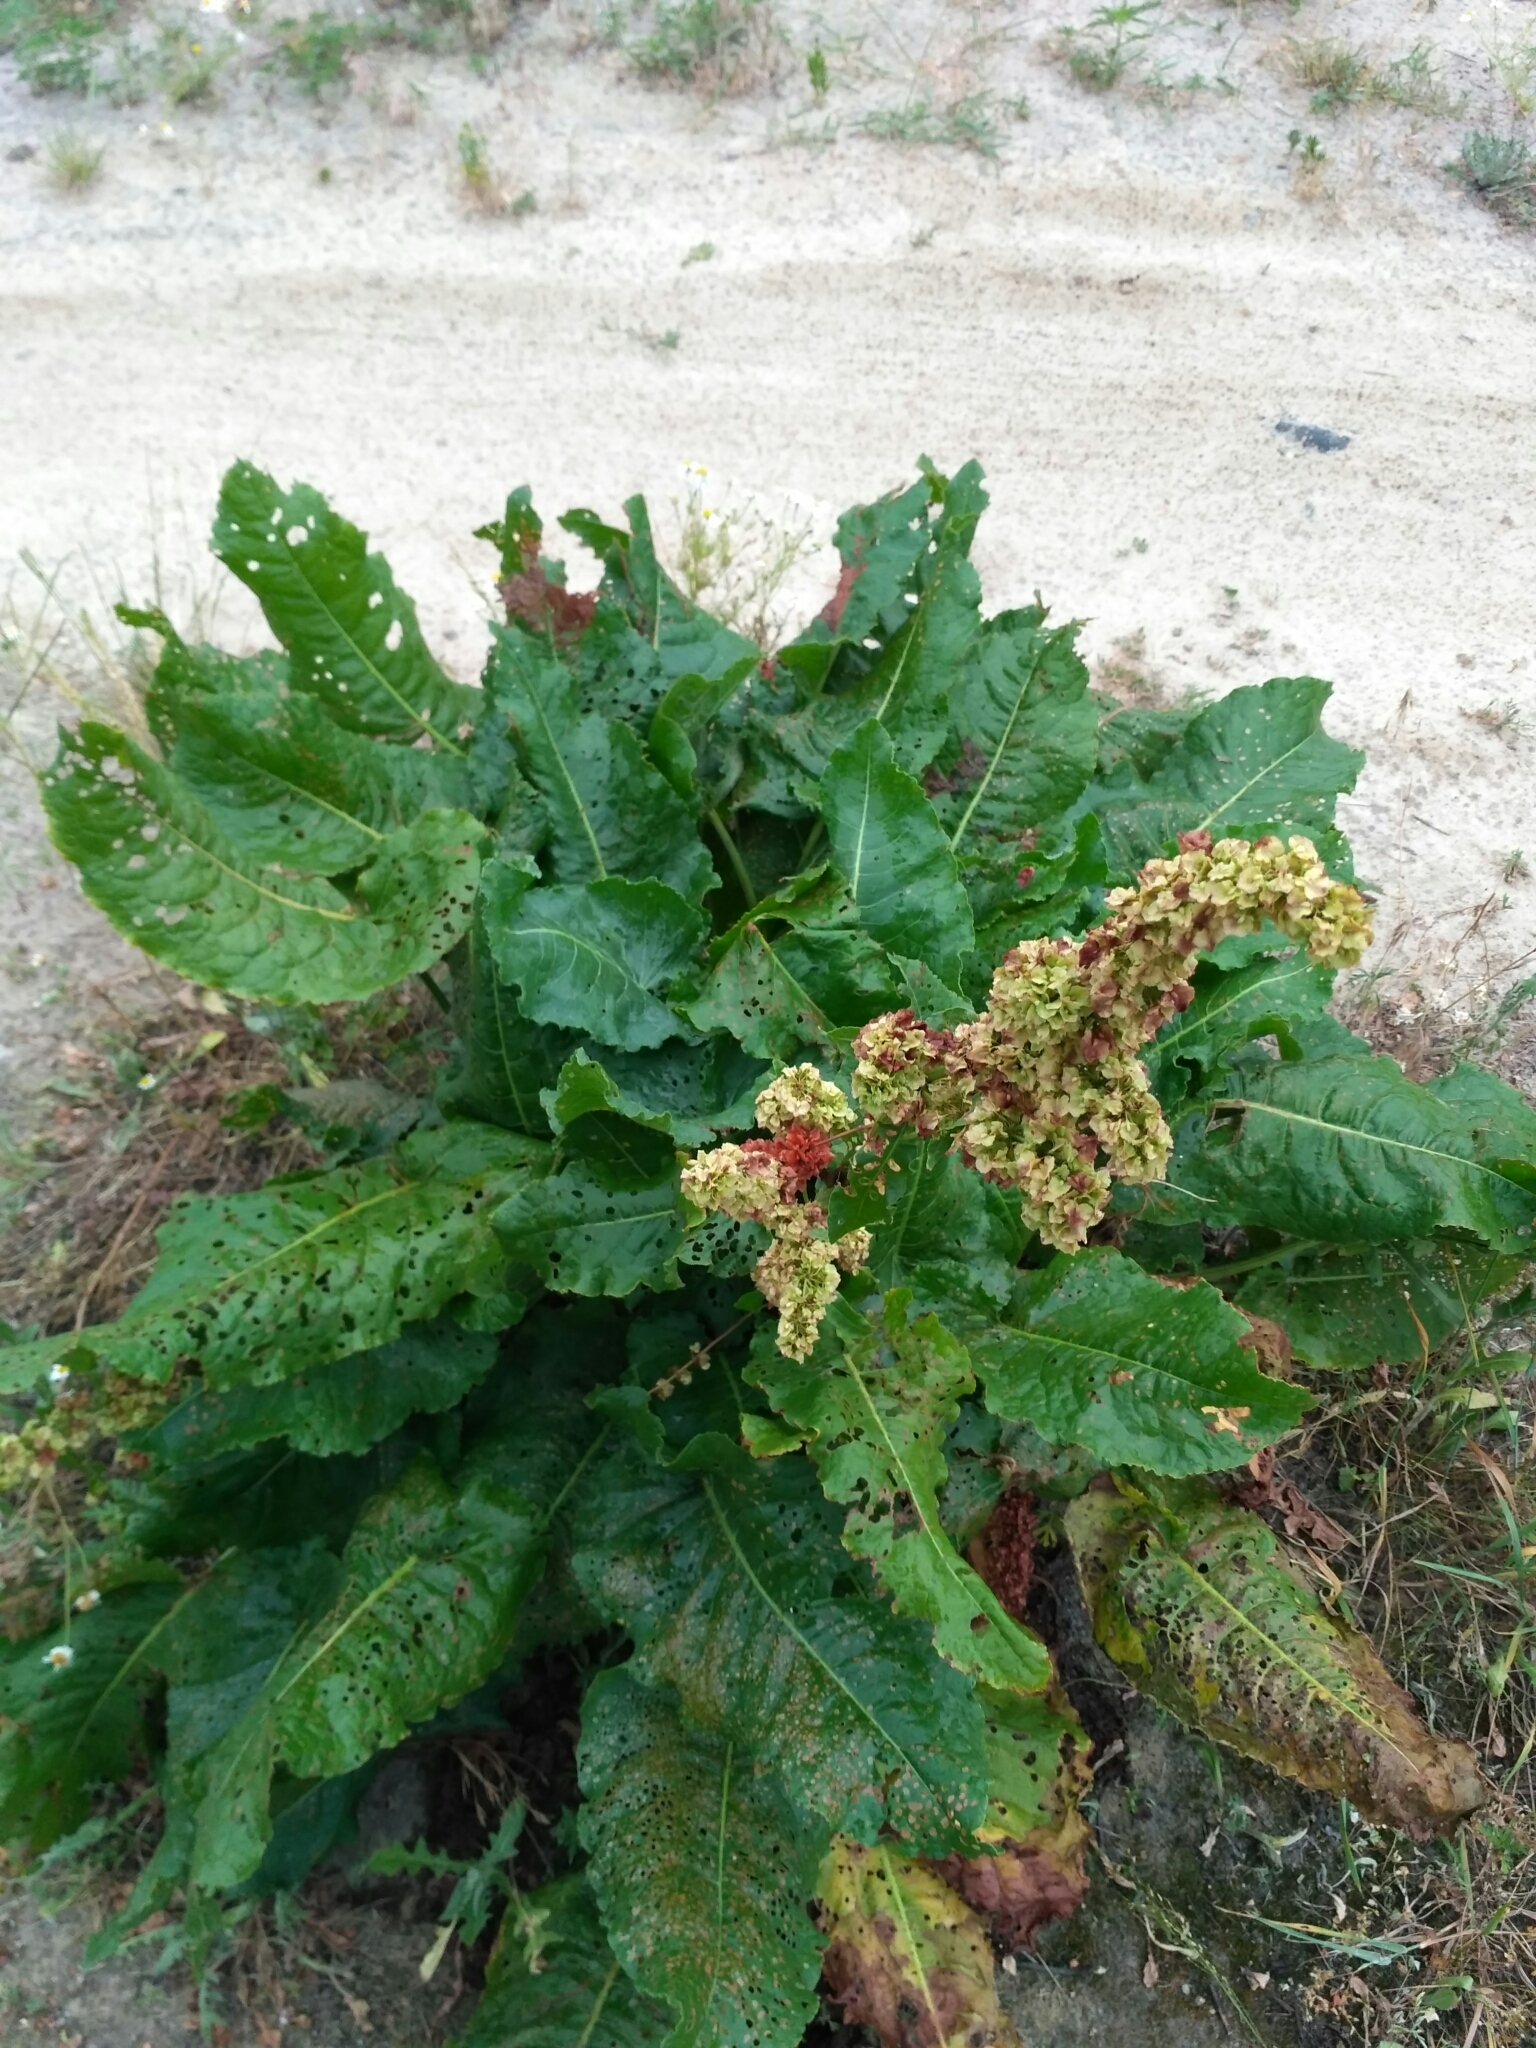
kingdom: Plantae
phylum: Tracheophyta
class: Magnoliopsida
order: Caryophyllales
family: Polygonaceae
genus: Rumex
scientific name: Rumex confertus
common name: Russian dock
